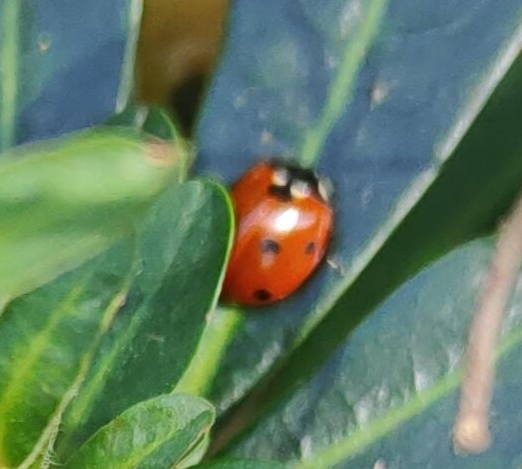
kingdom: Animalia
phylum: Arthropoda
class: Insecta
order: Coleoptera
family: Coccinellidae
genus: Coccinella
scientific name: Coccinella septempunctata
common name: Sevenspotted lady beetle
